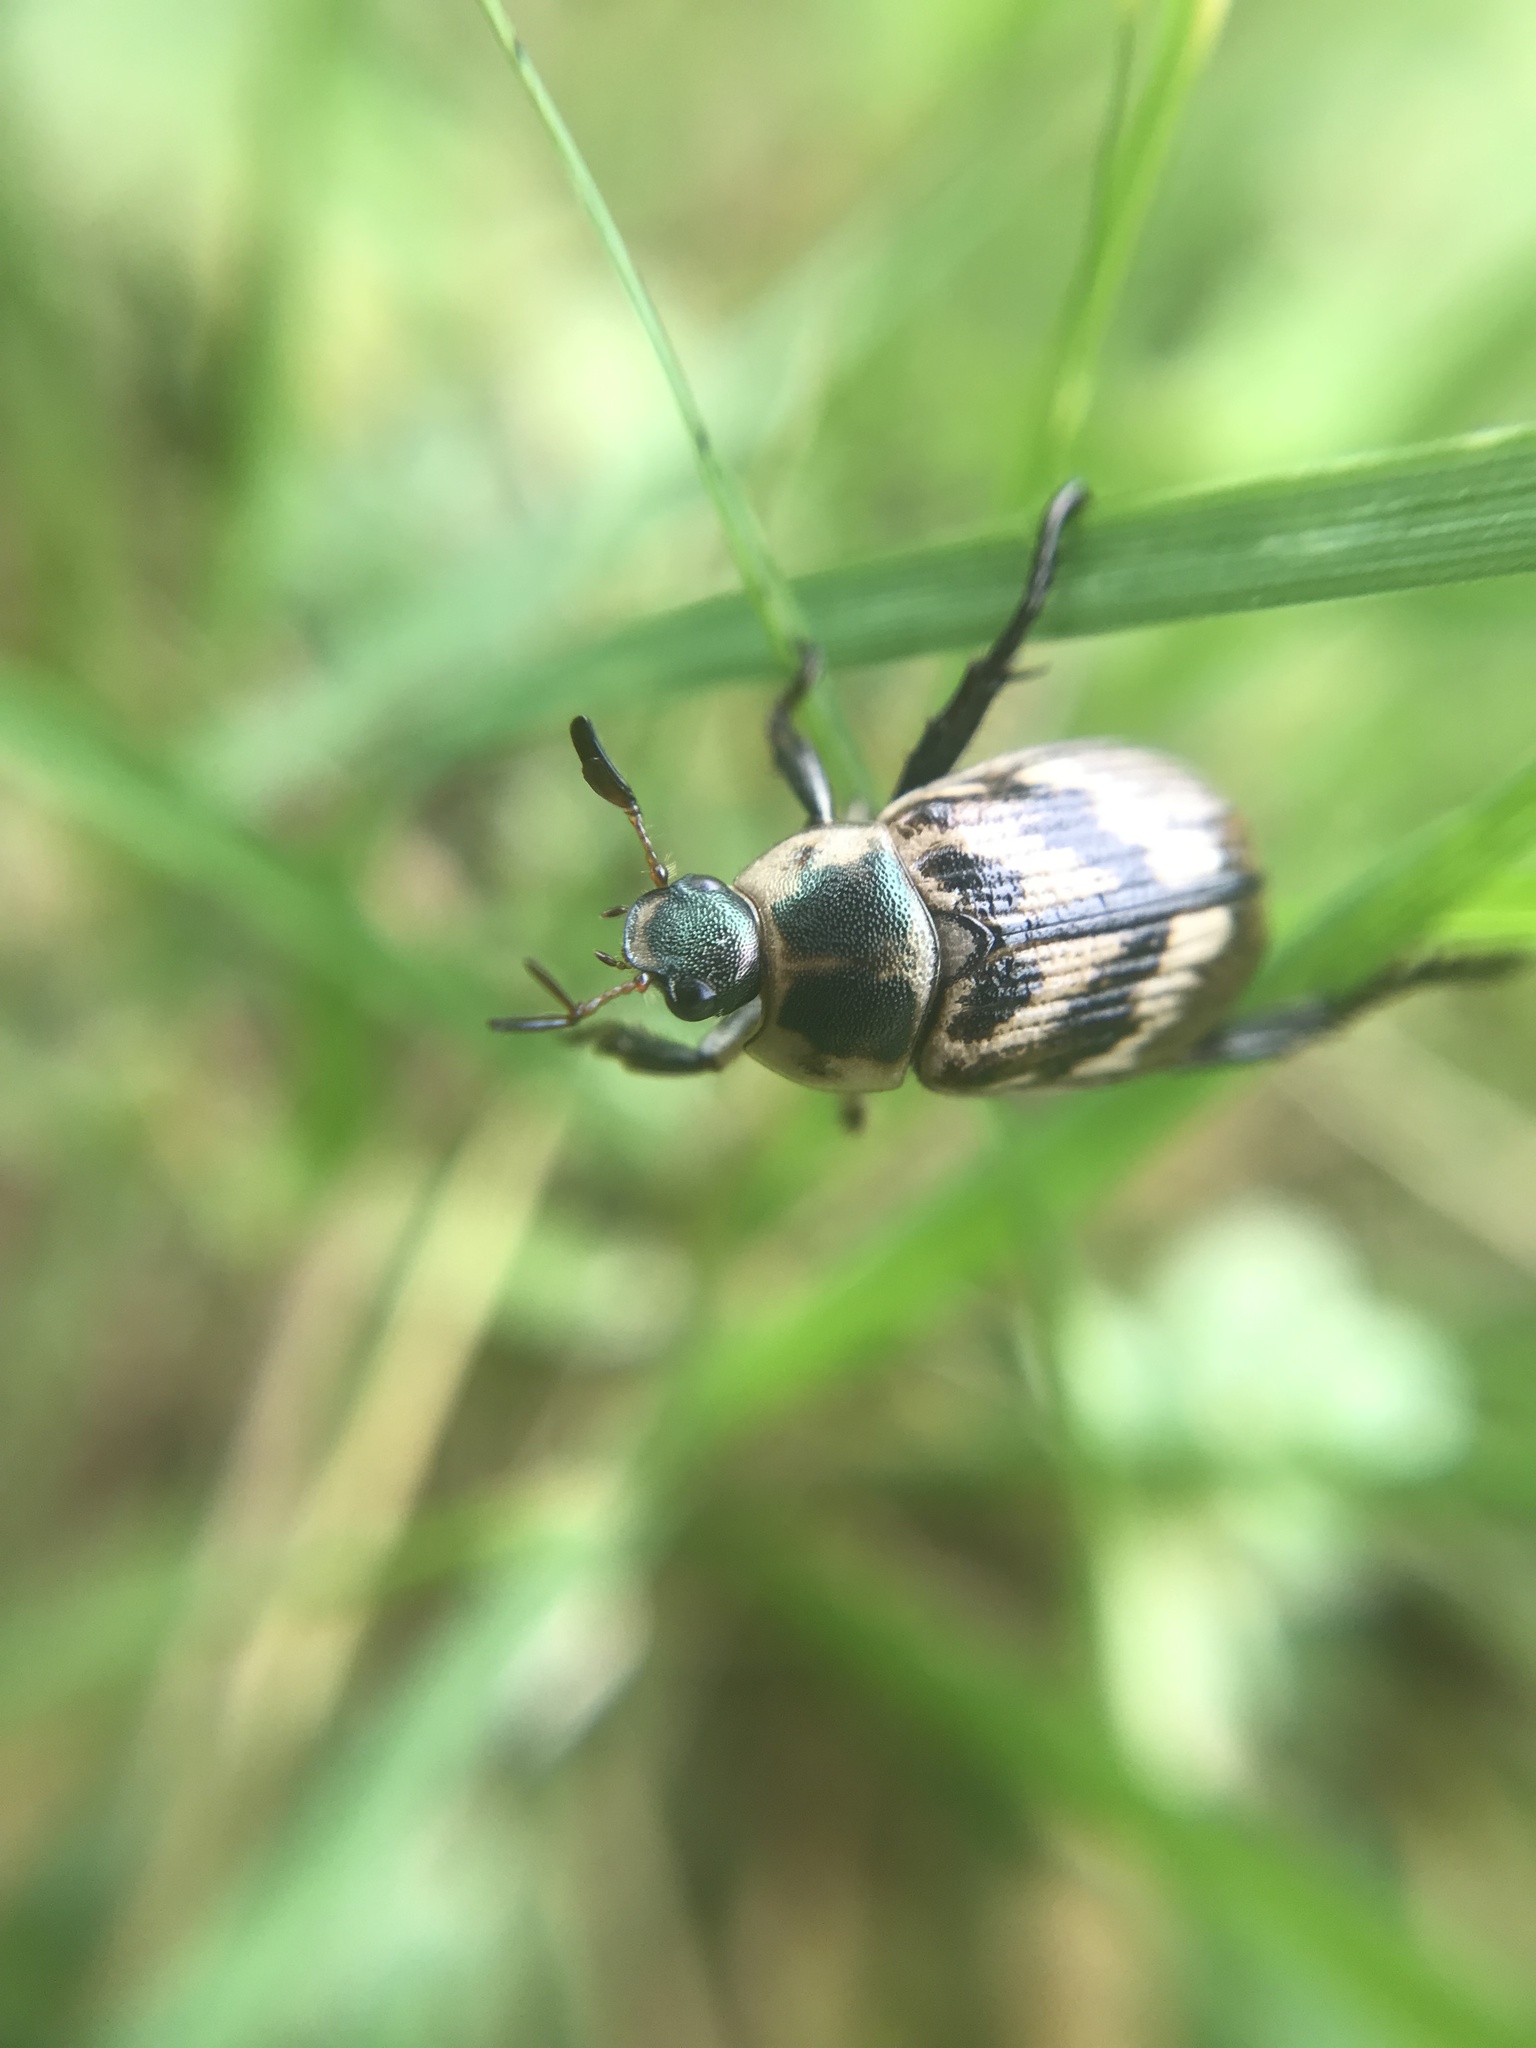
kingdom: Animalia
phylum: Arthropoda
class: Insecta
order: Coleoptera
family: Scarabaeidae
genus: Exomala
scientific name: Exomala orientalis
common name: Oriental beetle
